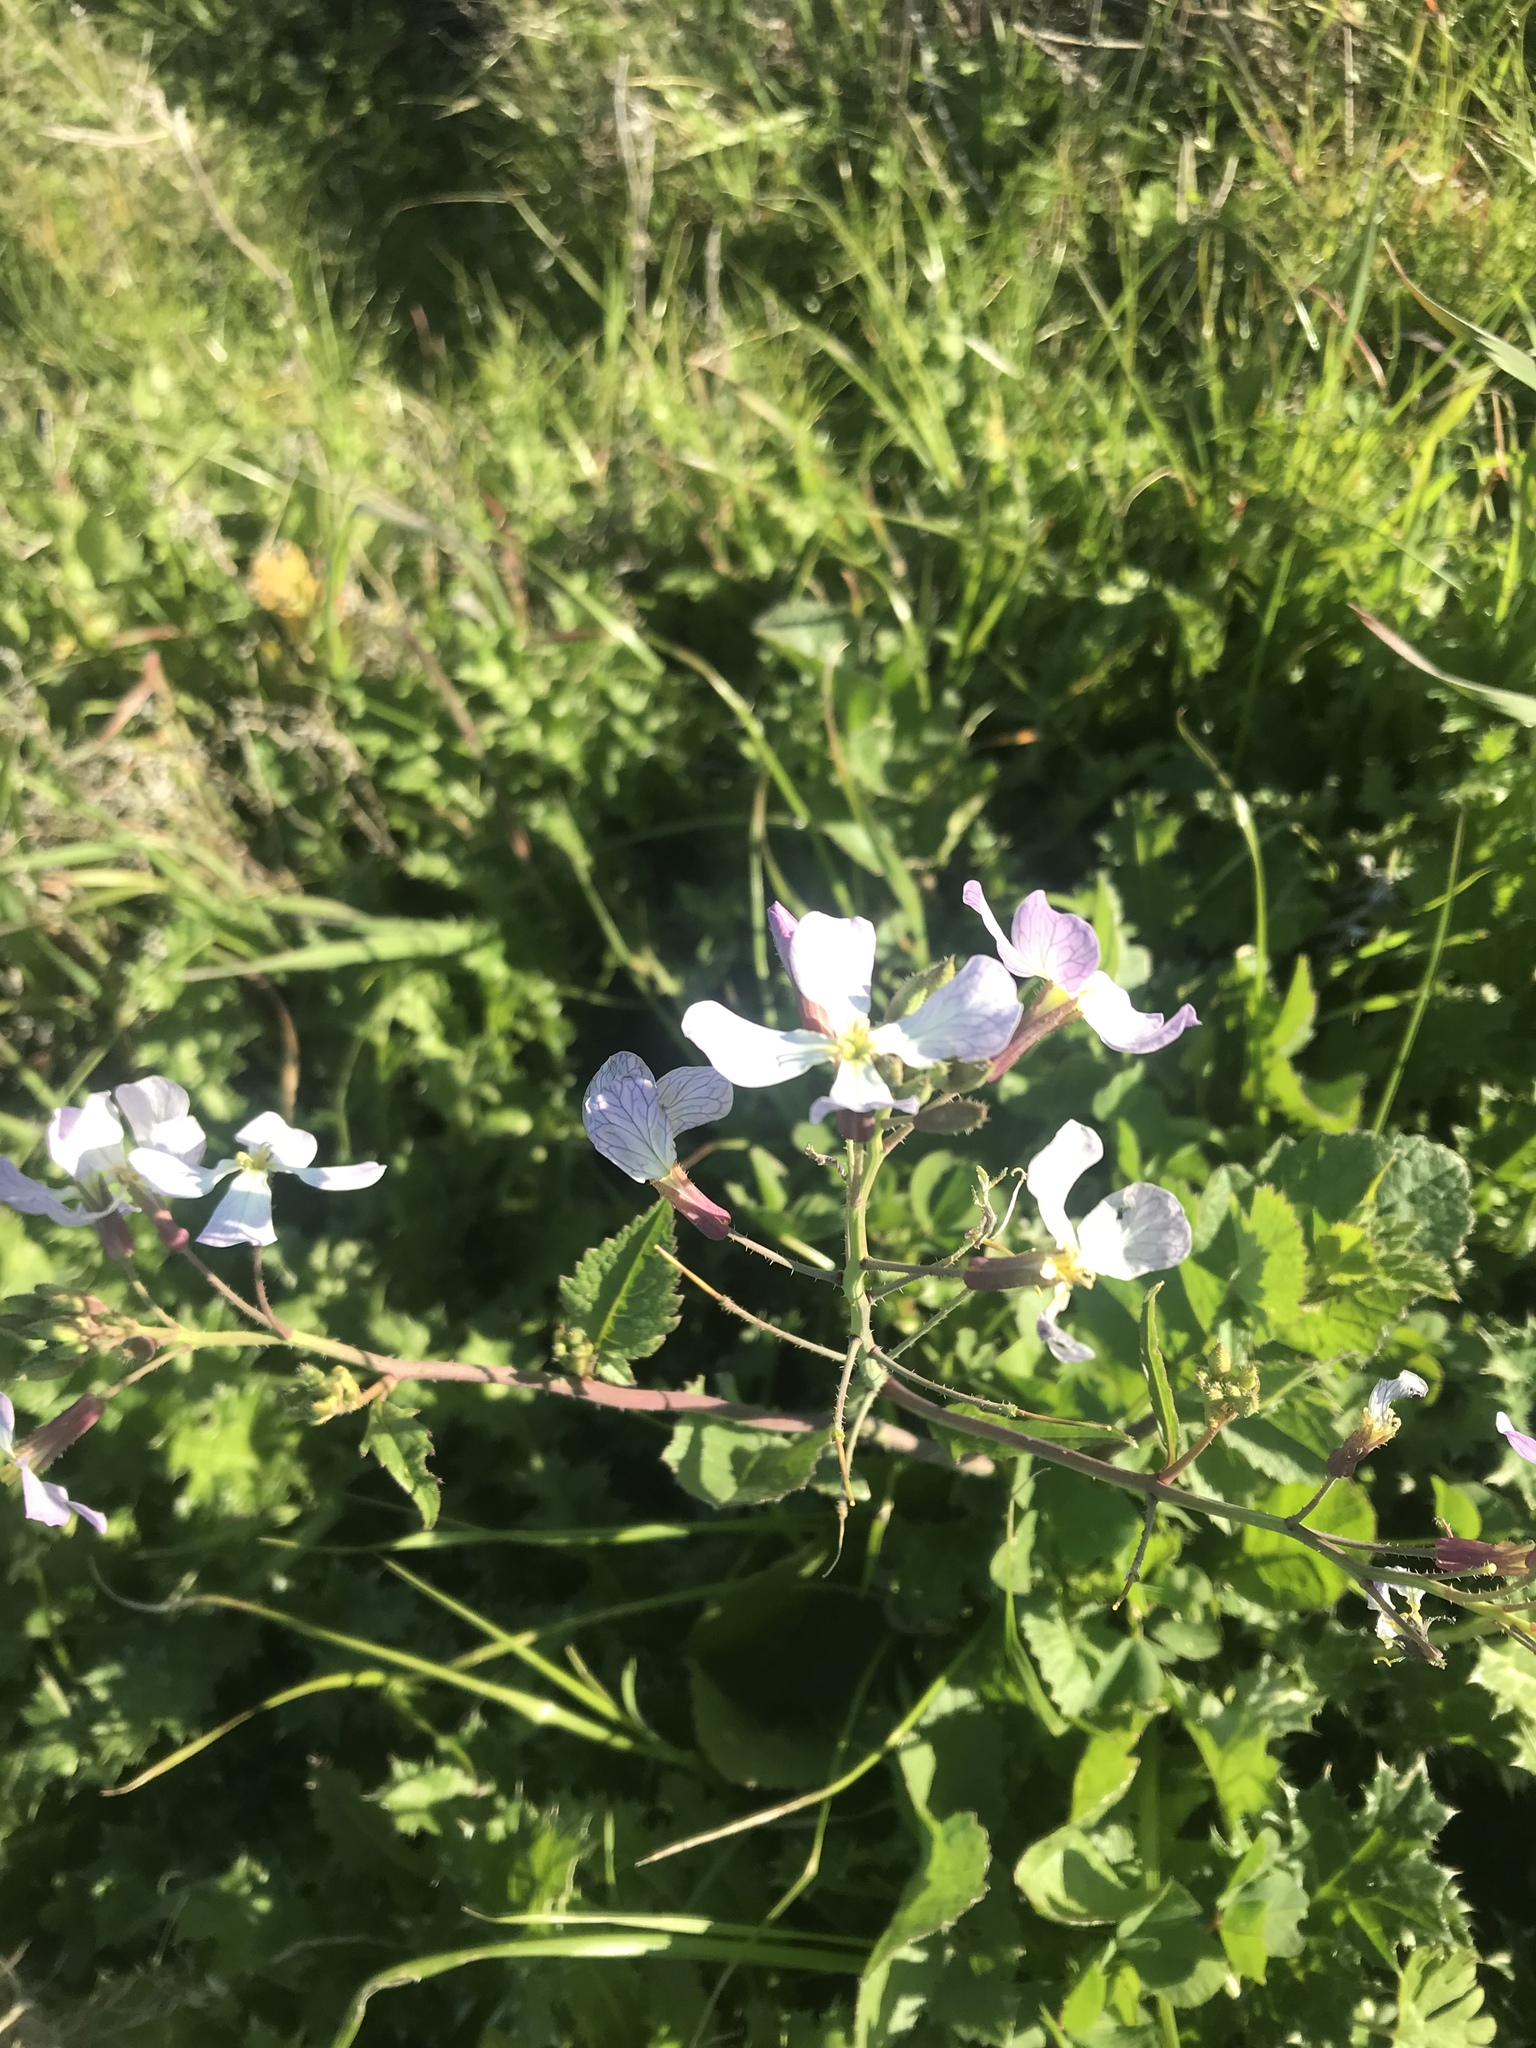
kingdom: Plantae
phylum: Tracheophyta
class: Magnoliopsida
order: Brassicales
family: Brassicaceae
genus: Raphanus
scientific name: Raphanus sativus
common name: Cultivated radish
